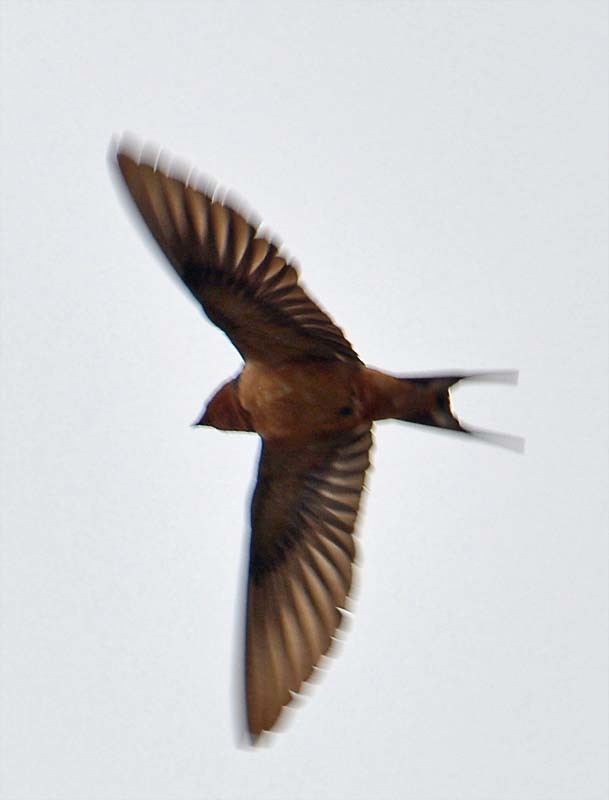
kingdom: Animalia
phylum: Chordata
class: Aves
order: Passeriformes
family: Hirundinidae
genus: Hirundo
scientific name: Hirundo rustica
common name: Barn swallow
